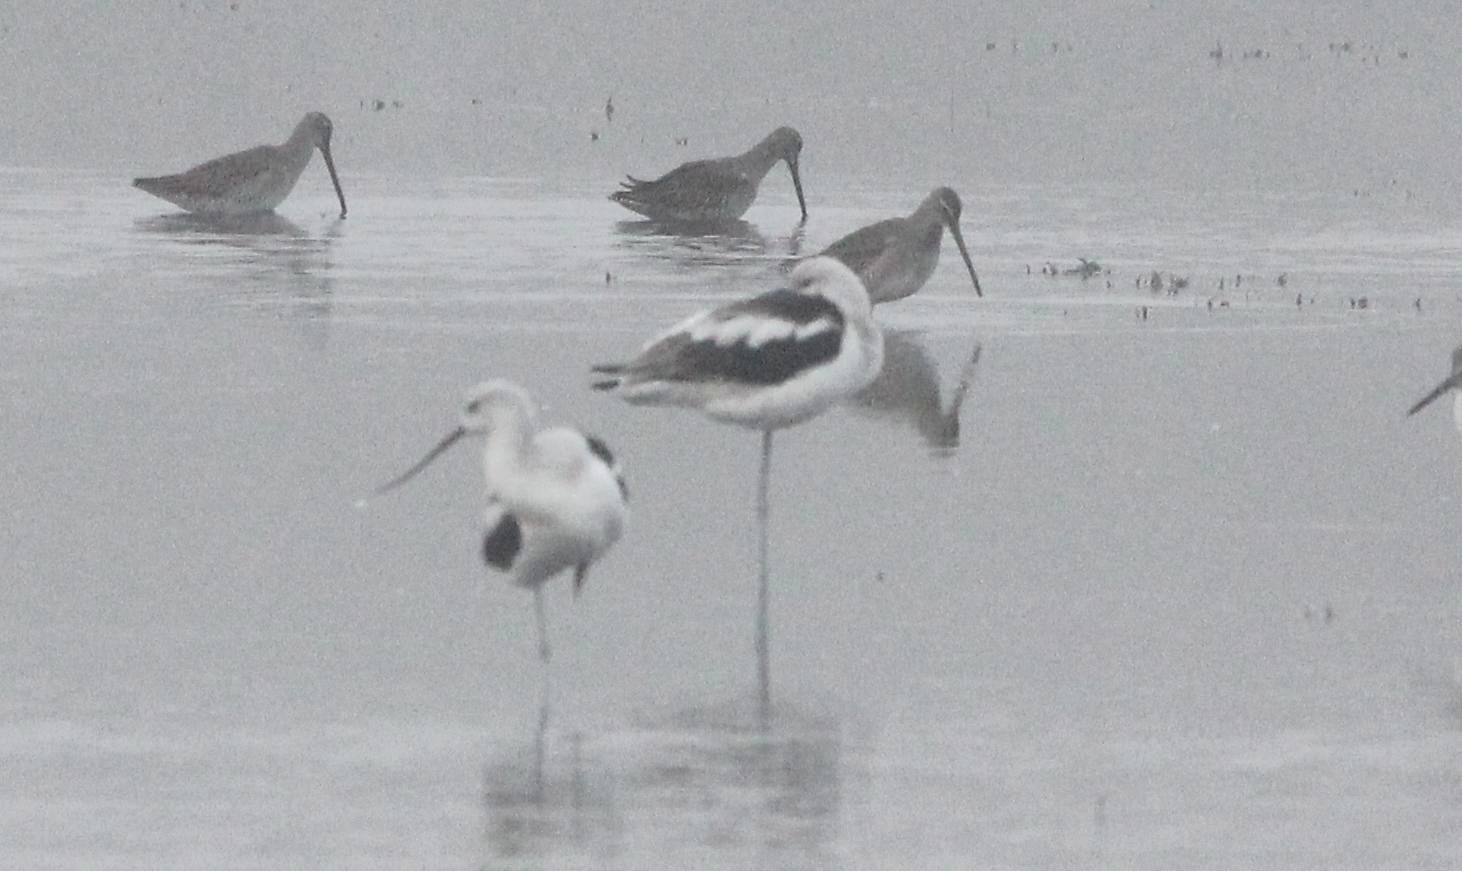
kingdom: Animalia
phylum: Chordata
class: Aves
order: Charadriiformes
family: Recurvirostridae
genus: Recurvirostra
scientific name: Recurvirostra americana
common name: American avocet
